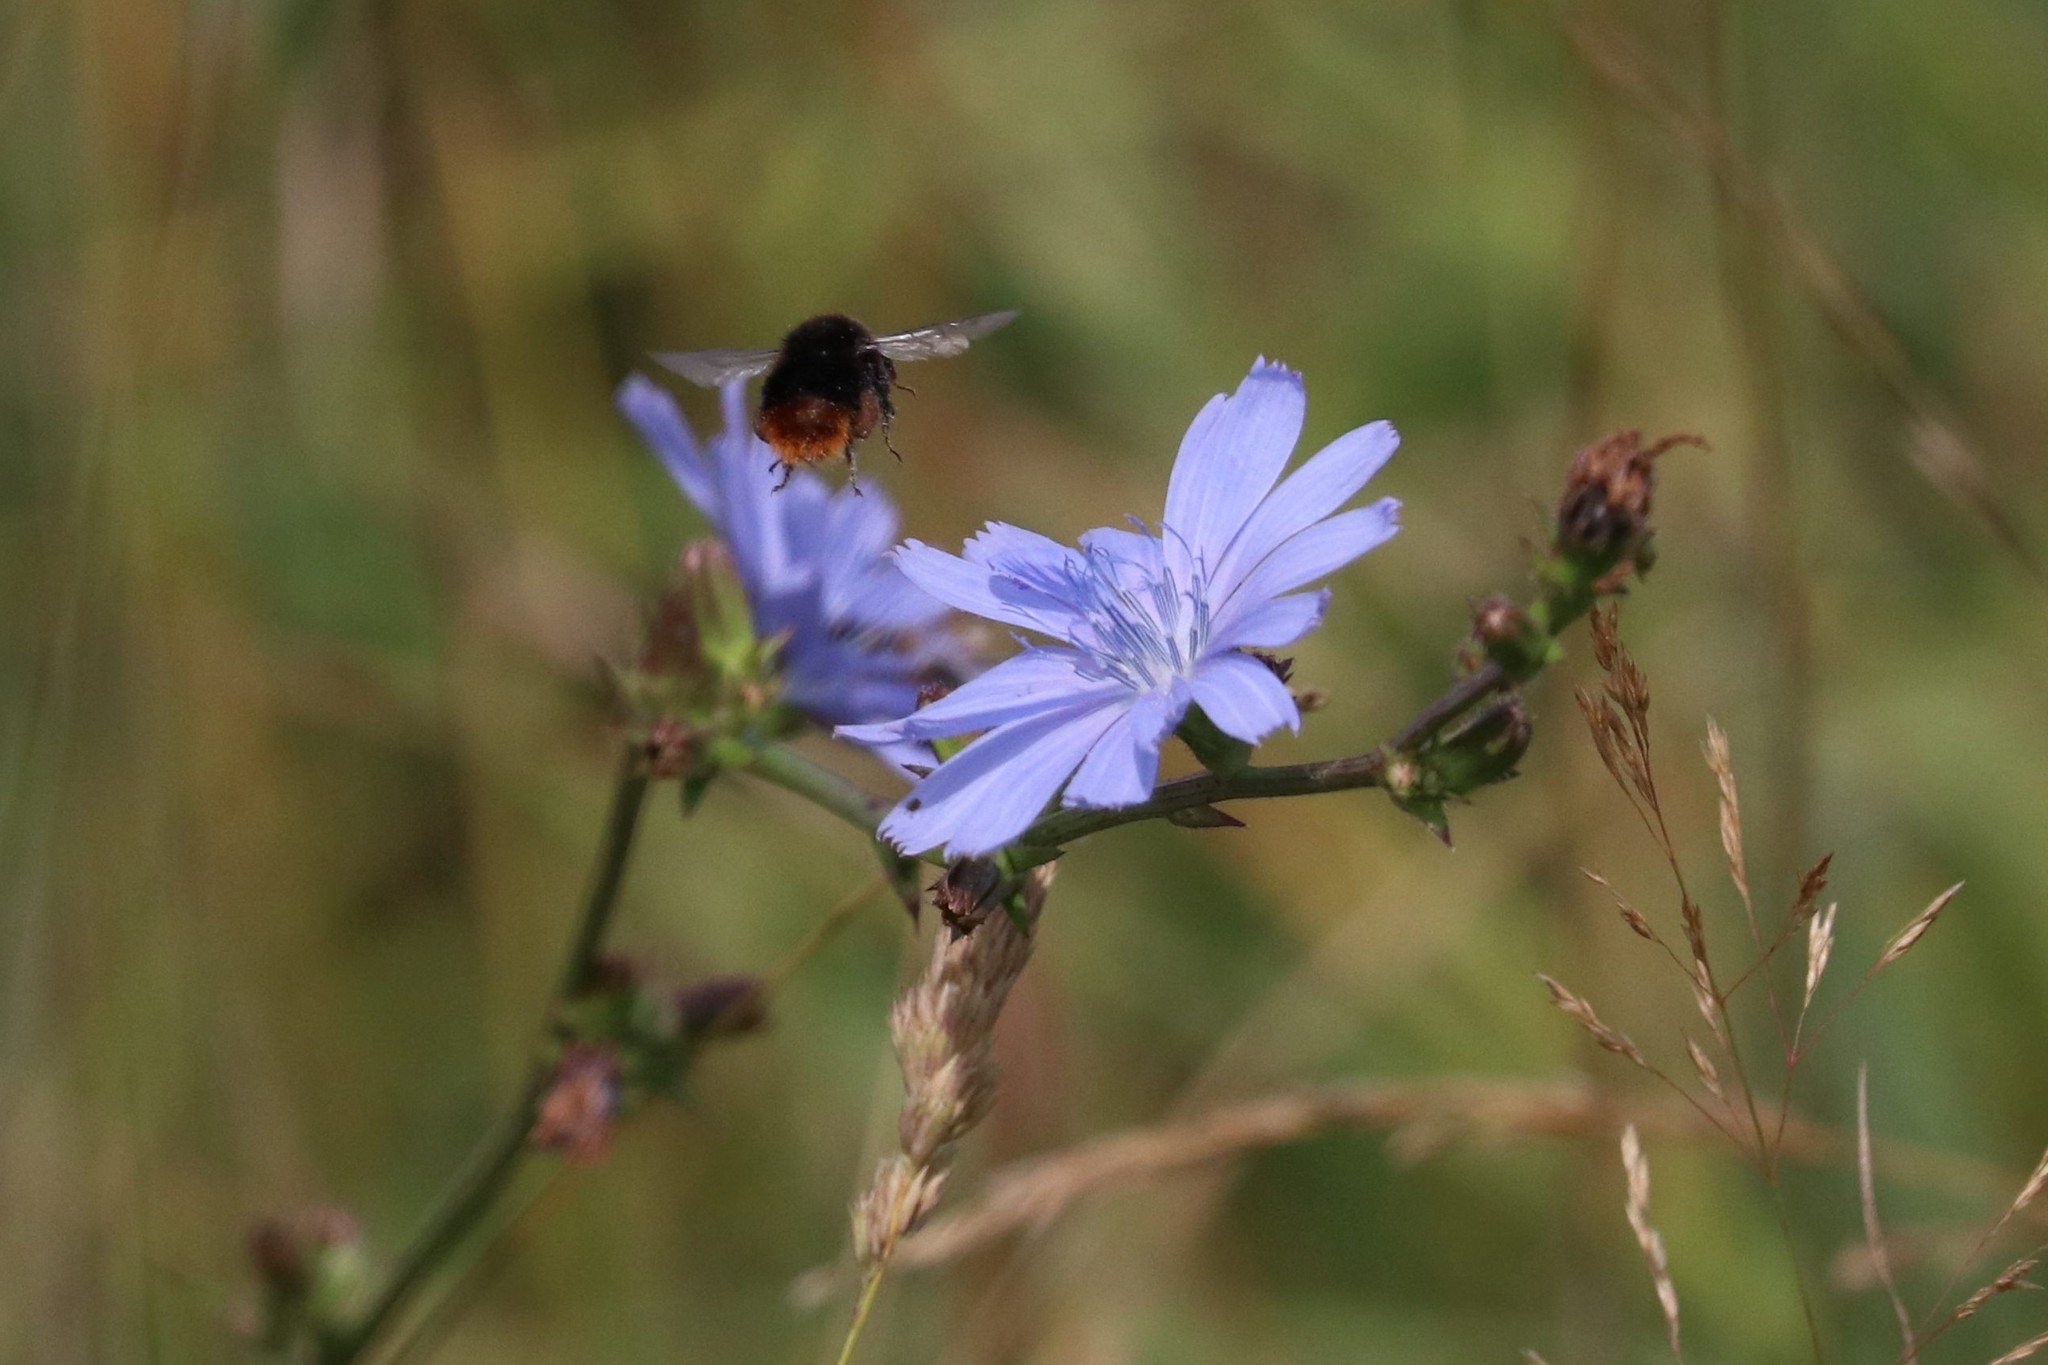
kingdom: Plantae
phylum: Tracheophyta
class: Magnoliopsida
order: Asterales
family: Asteraceae
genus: Cichorium
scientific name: Cichorium intybus
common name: Chicory
